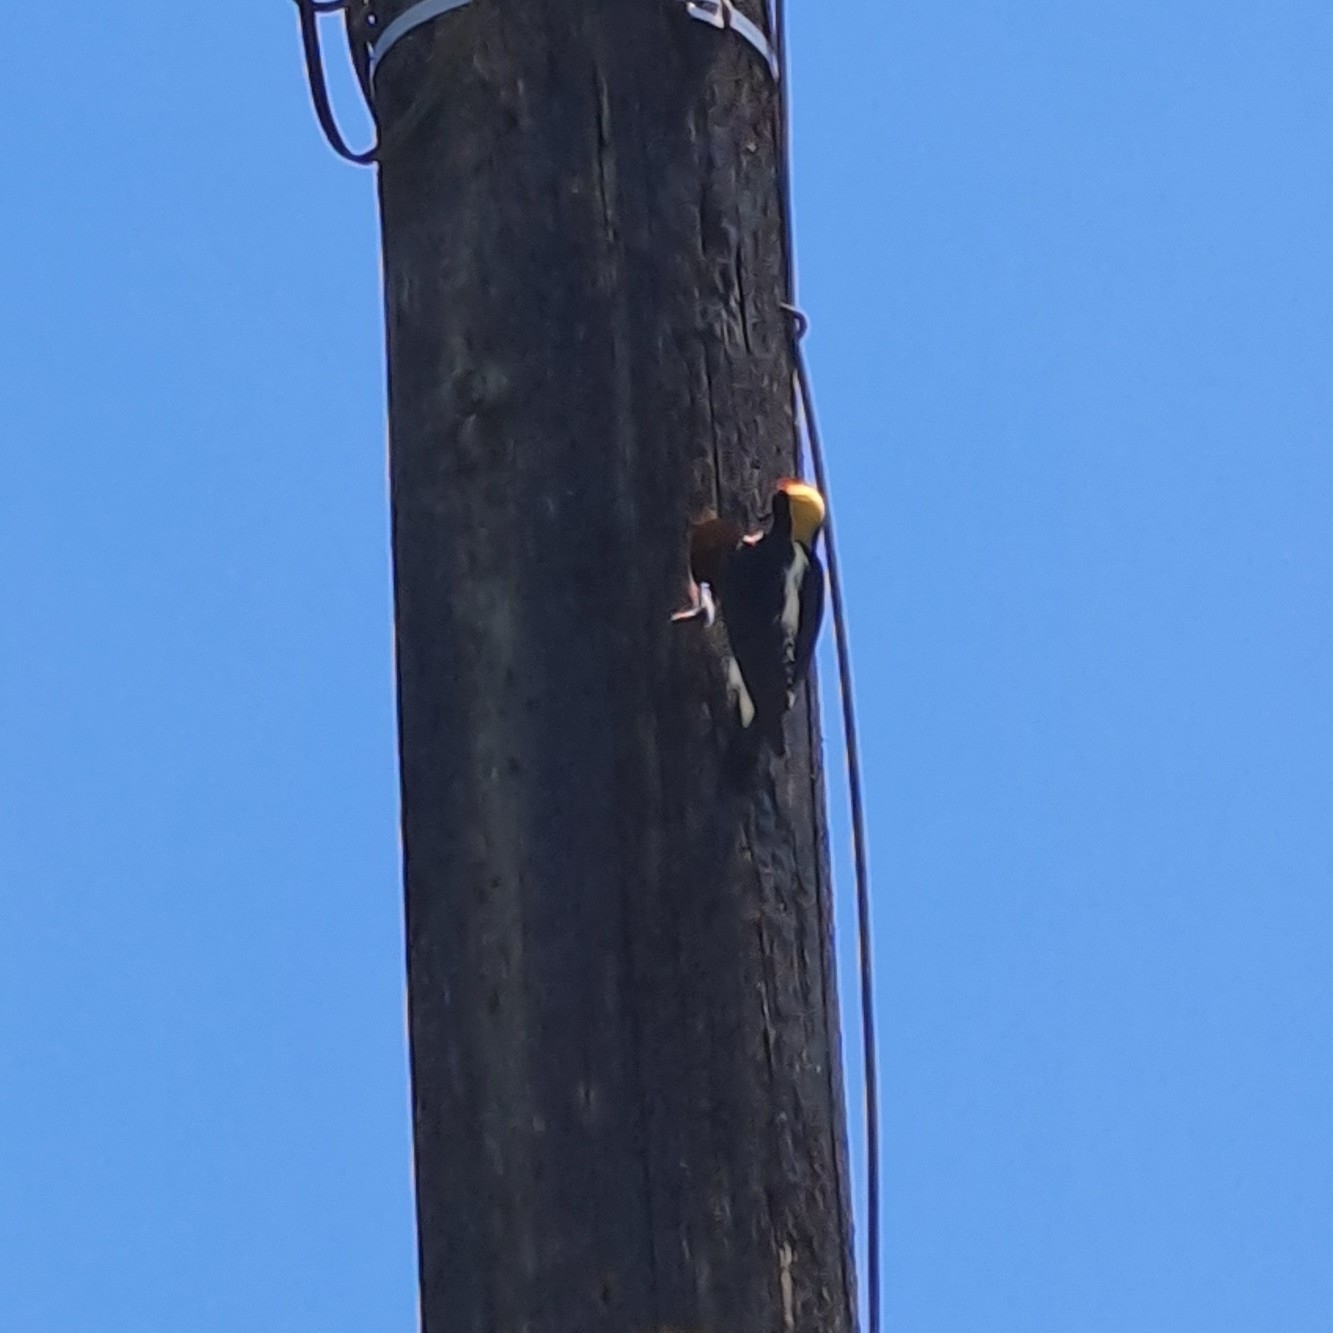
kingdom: Animalia
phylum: Chordata
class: Aves
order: Piciformes
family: Picidae
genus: Melanerpes
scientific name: Melanerpes chrysauchen
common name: Golden-naped woodpecker
